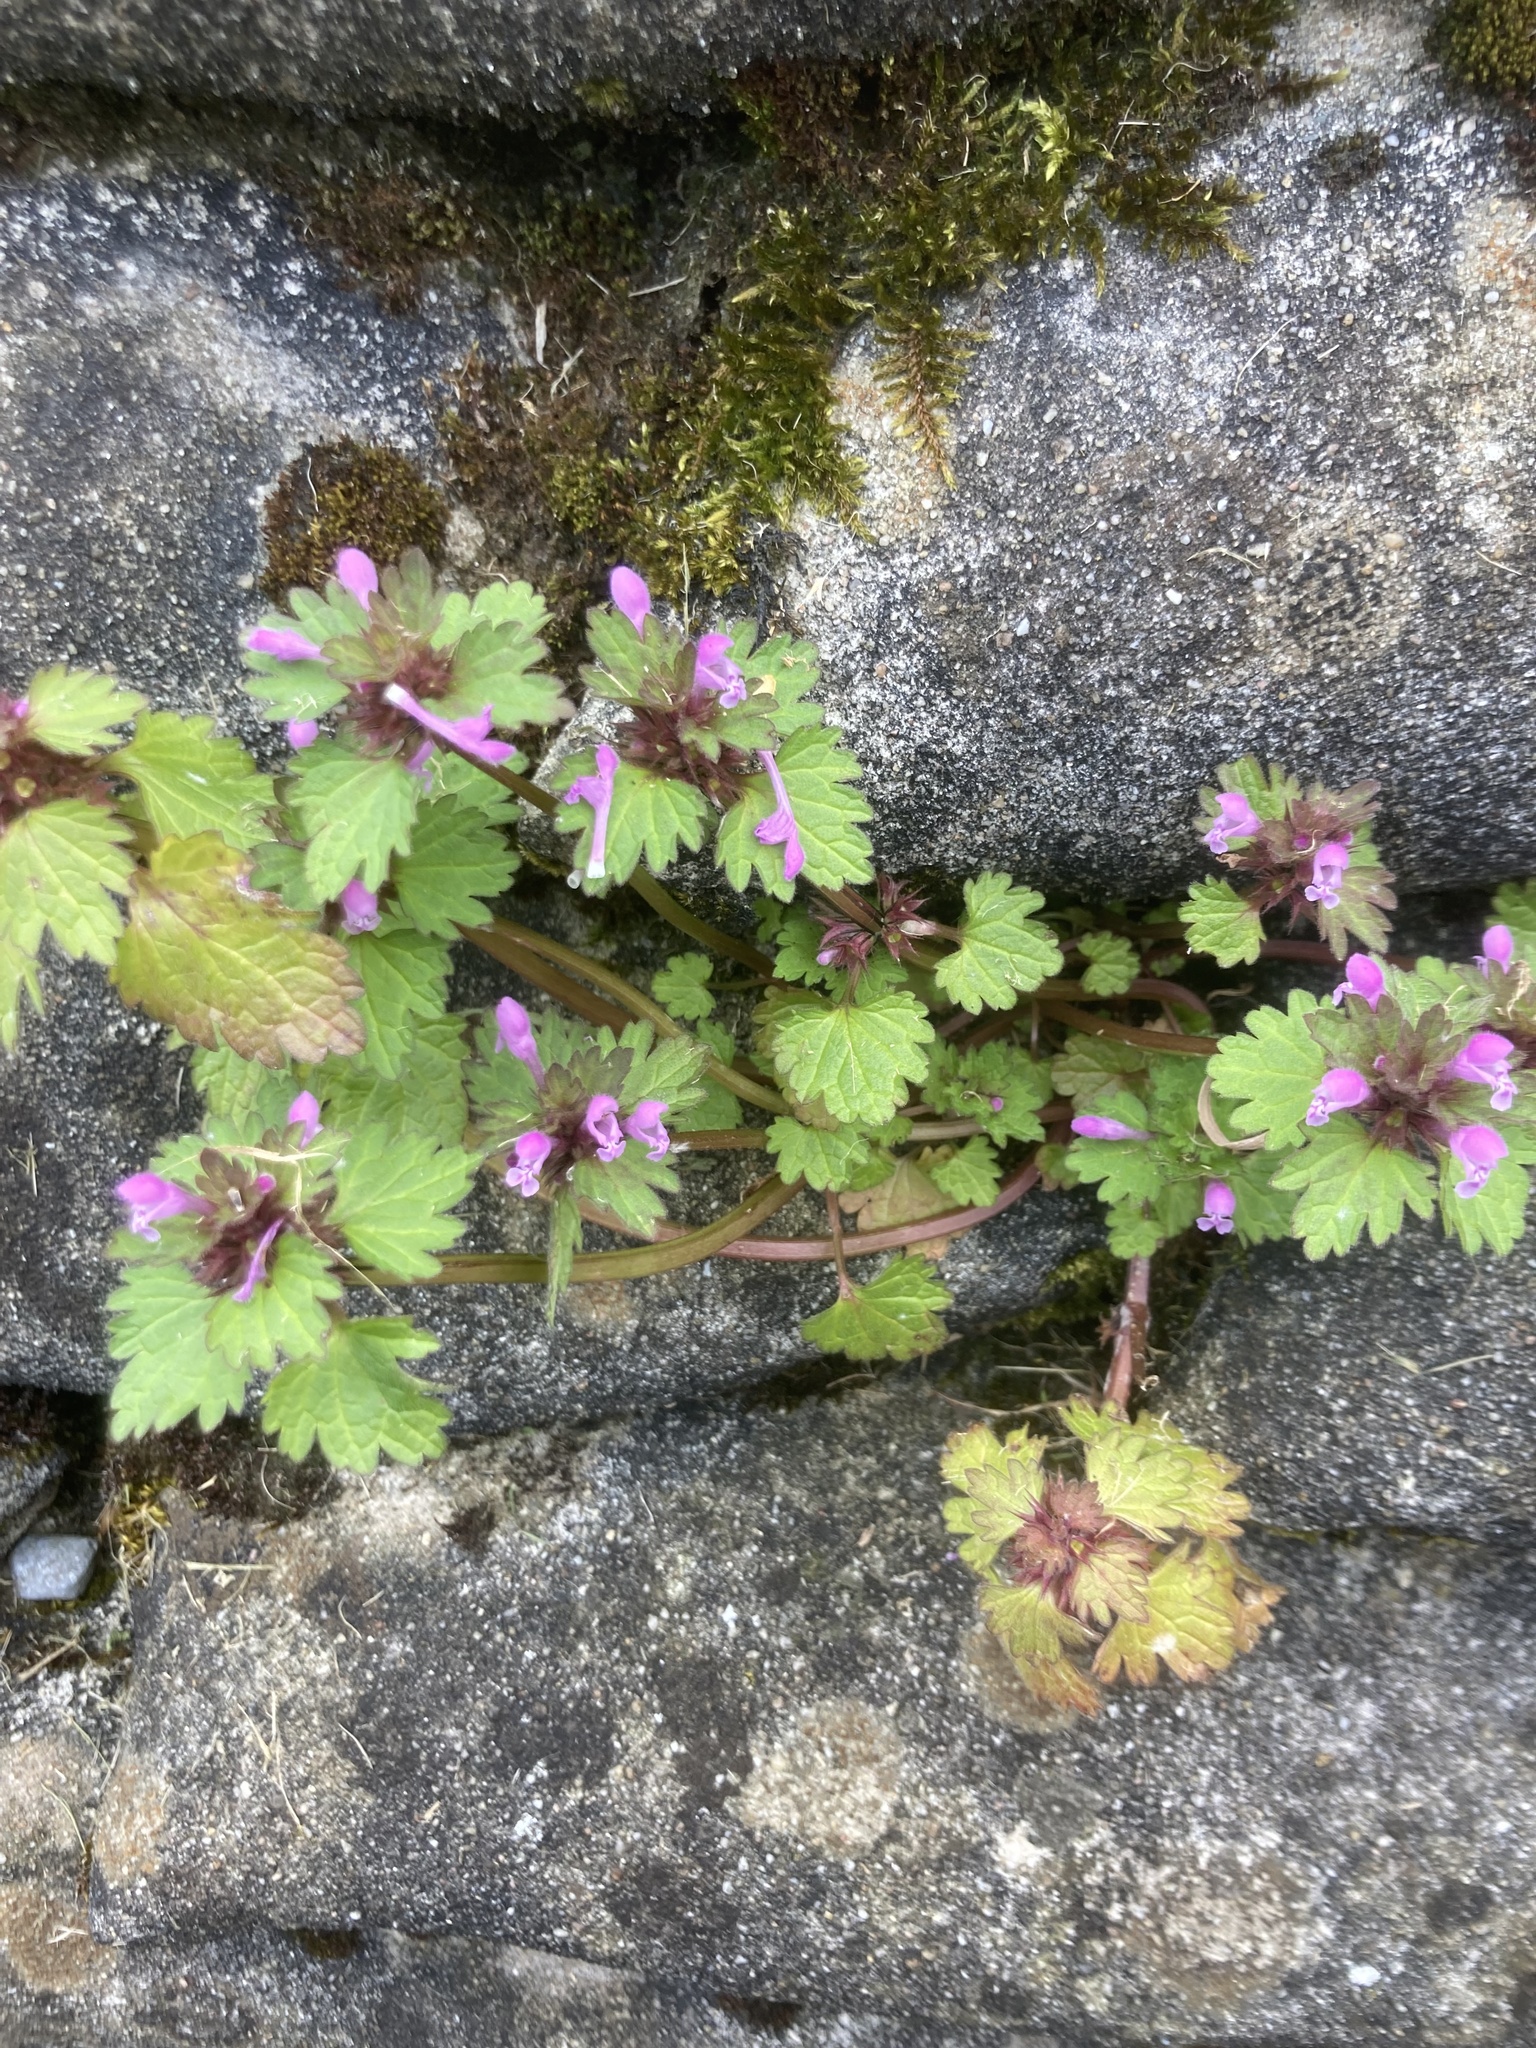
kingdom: Plantae
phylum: Tracheophyta
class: Magnoliopsida
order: Lamiales
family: Lamiaceae
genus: Lamium
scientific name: Lamium hybridum
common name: Cut-leaved dead-nettle
